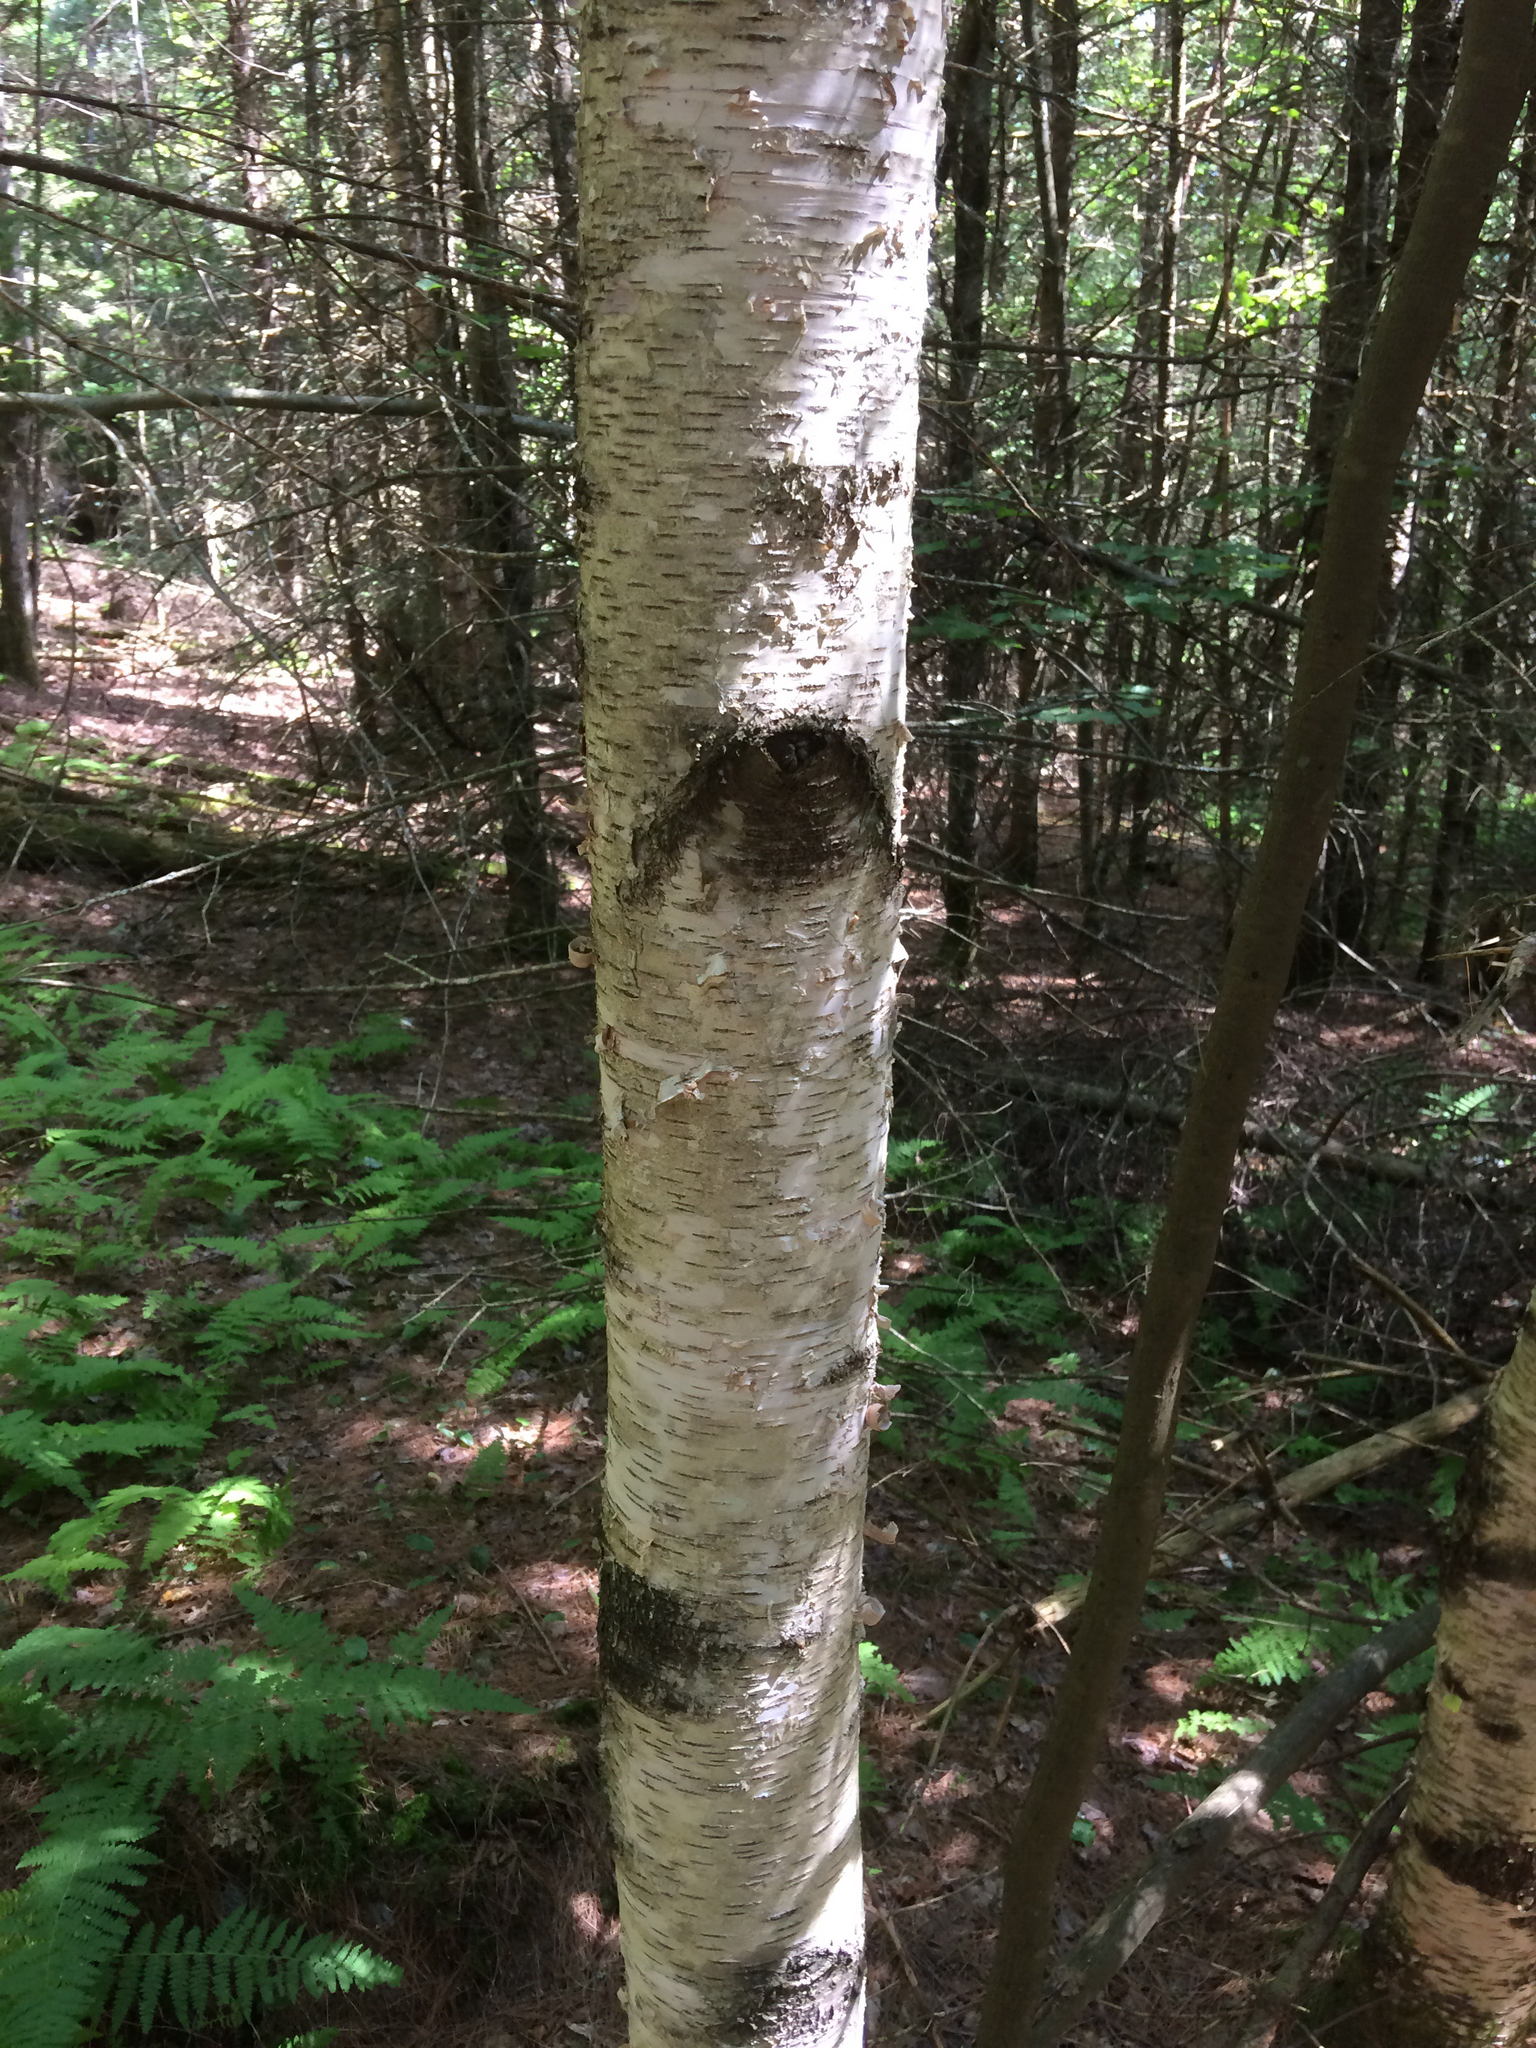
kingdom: Plantae
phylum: Tracheophyta
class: Magnoliopsida
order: Fagales
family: Betulaceae
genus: Betula
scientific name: Betula populifolia
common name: Fire birch
